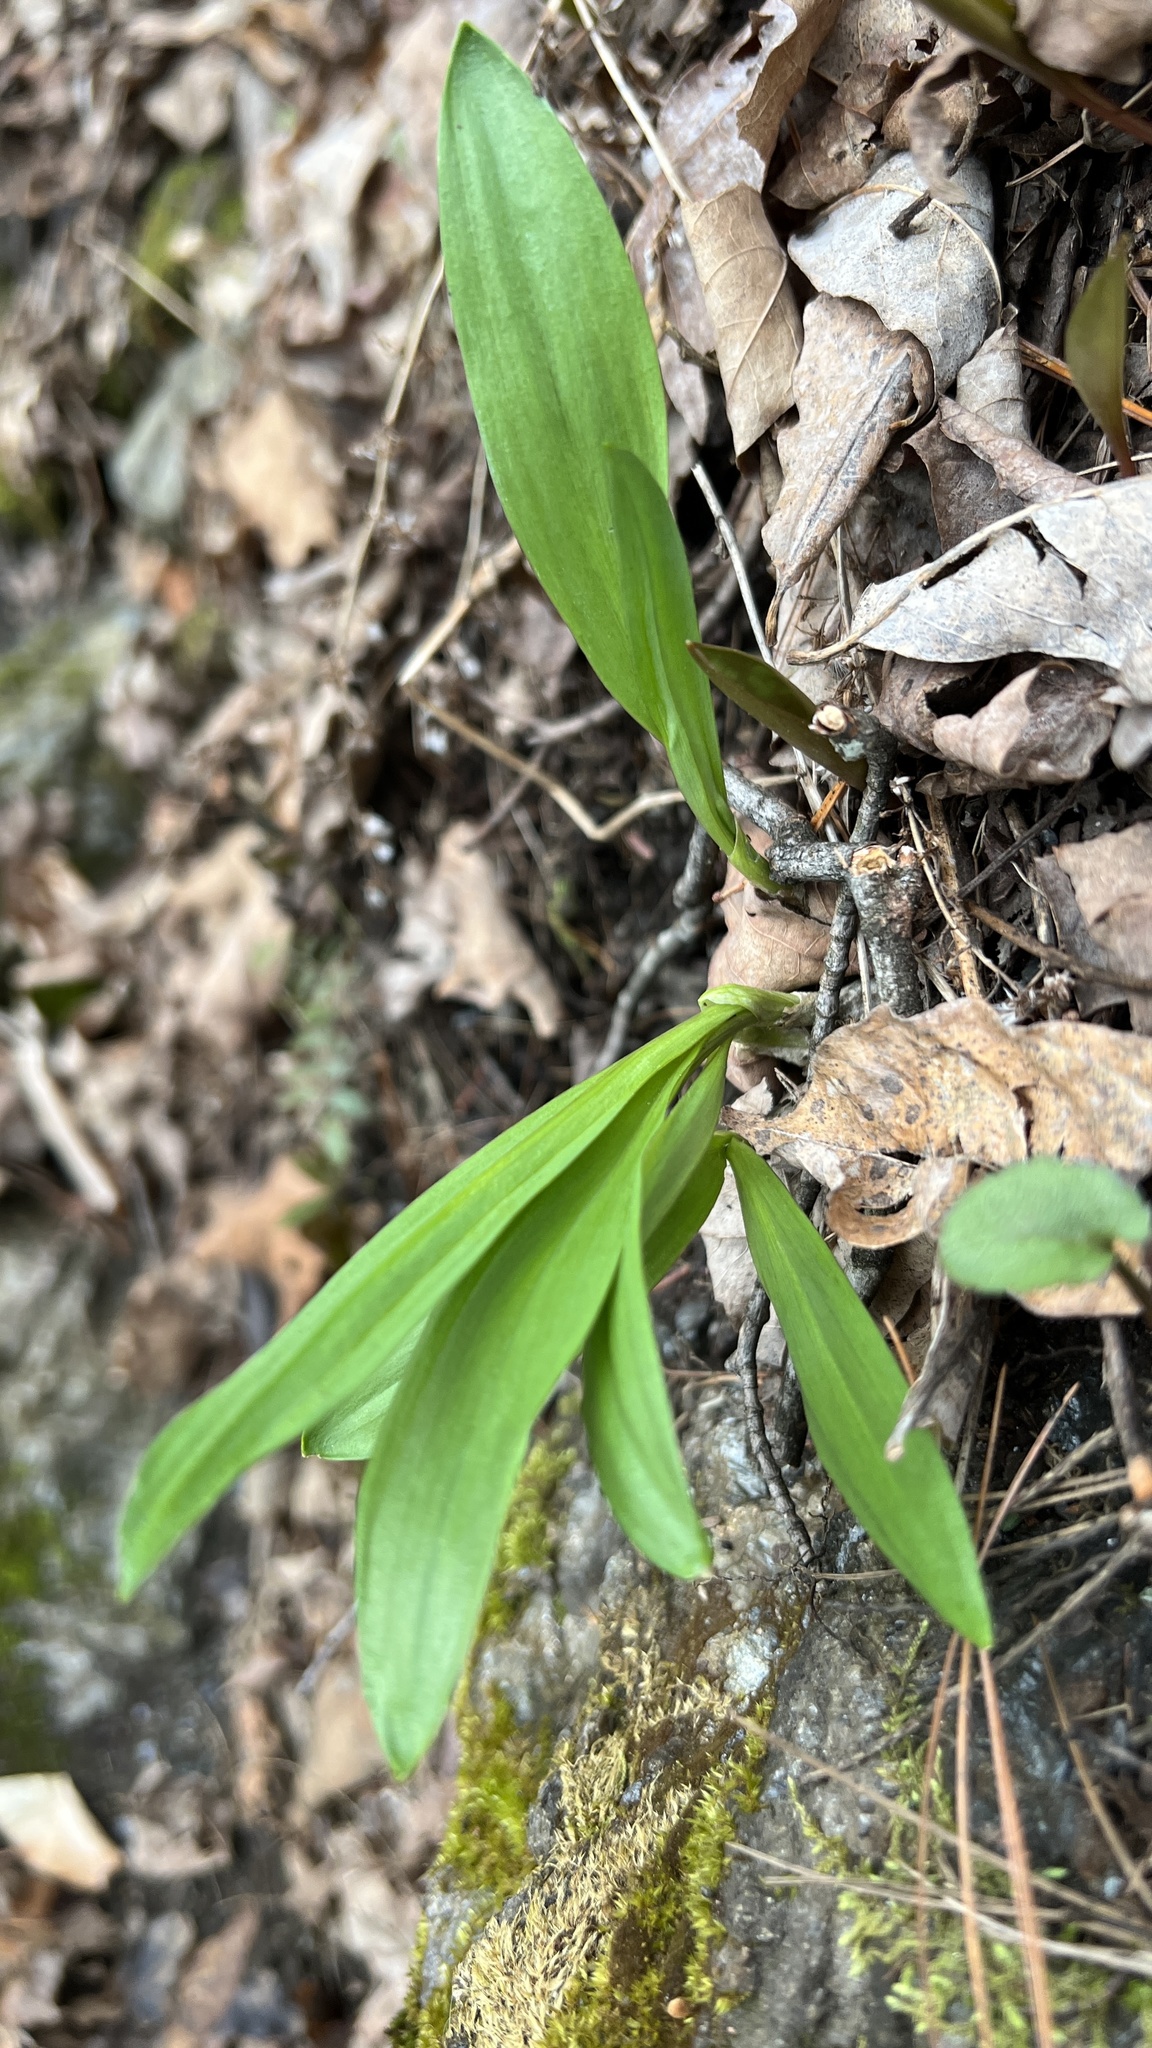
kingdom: Plantae
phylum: Tracheophyta
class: Liliopsida
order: Asparagales
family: Amaryllidaceae
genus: Allium
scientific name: Allium tricoccum
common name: Ramp
